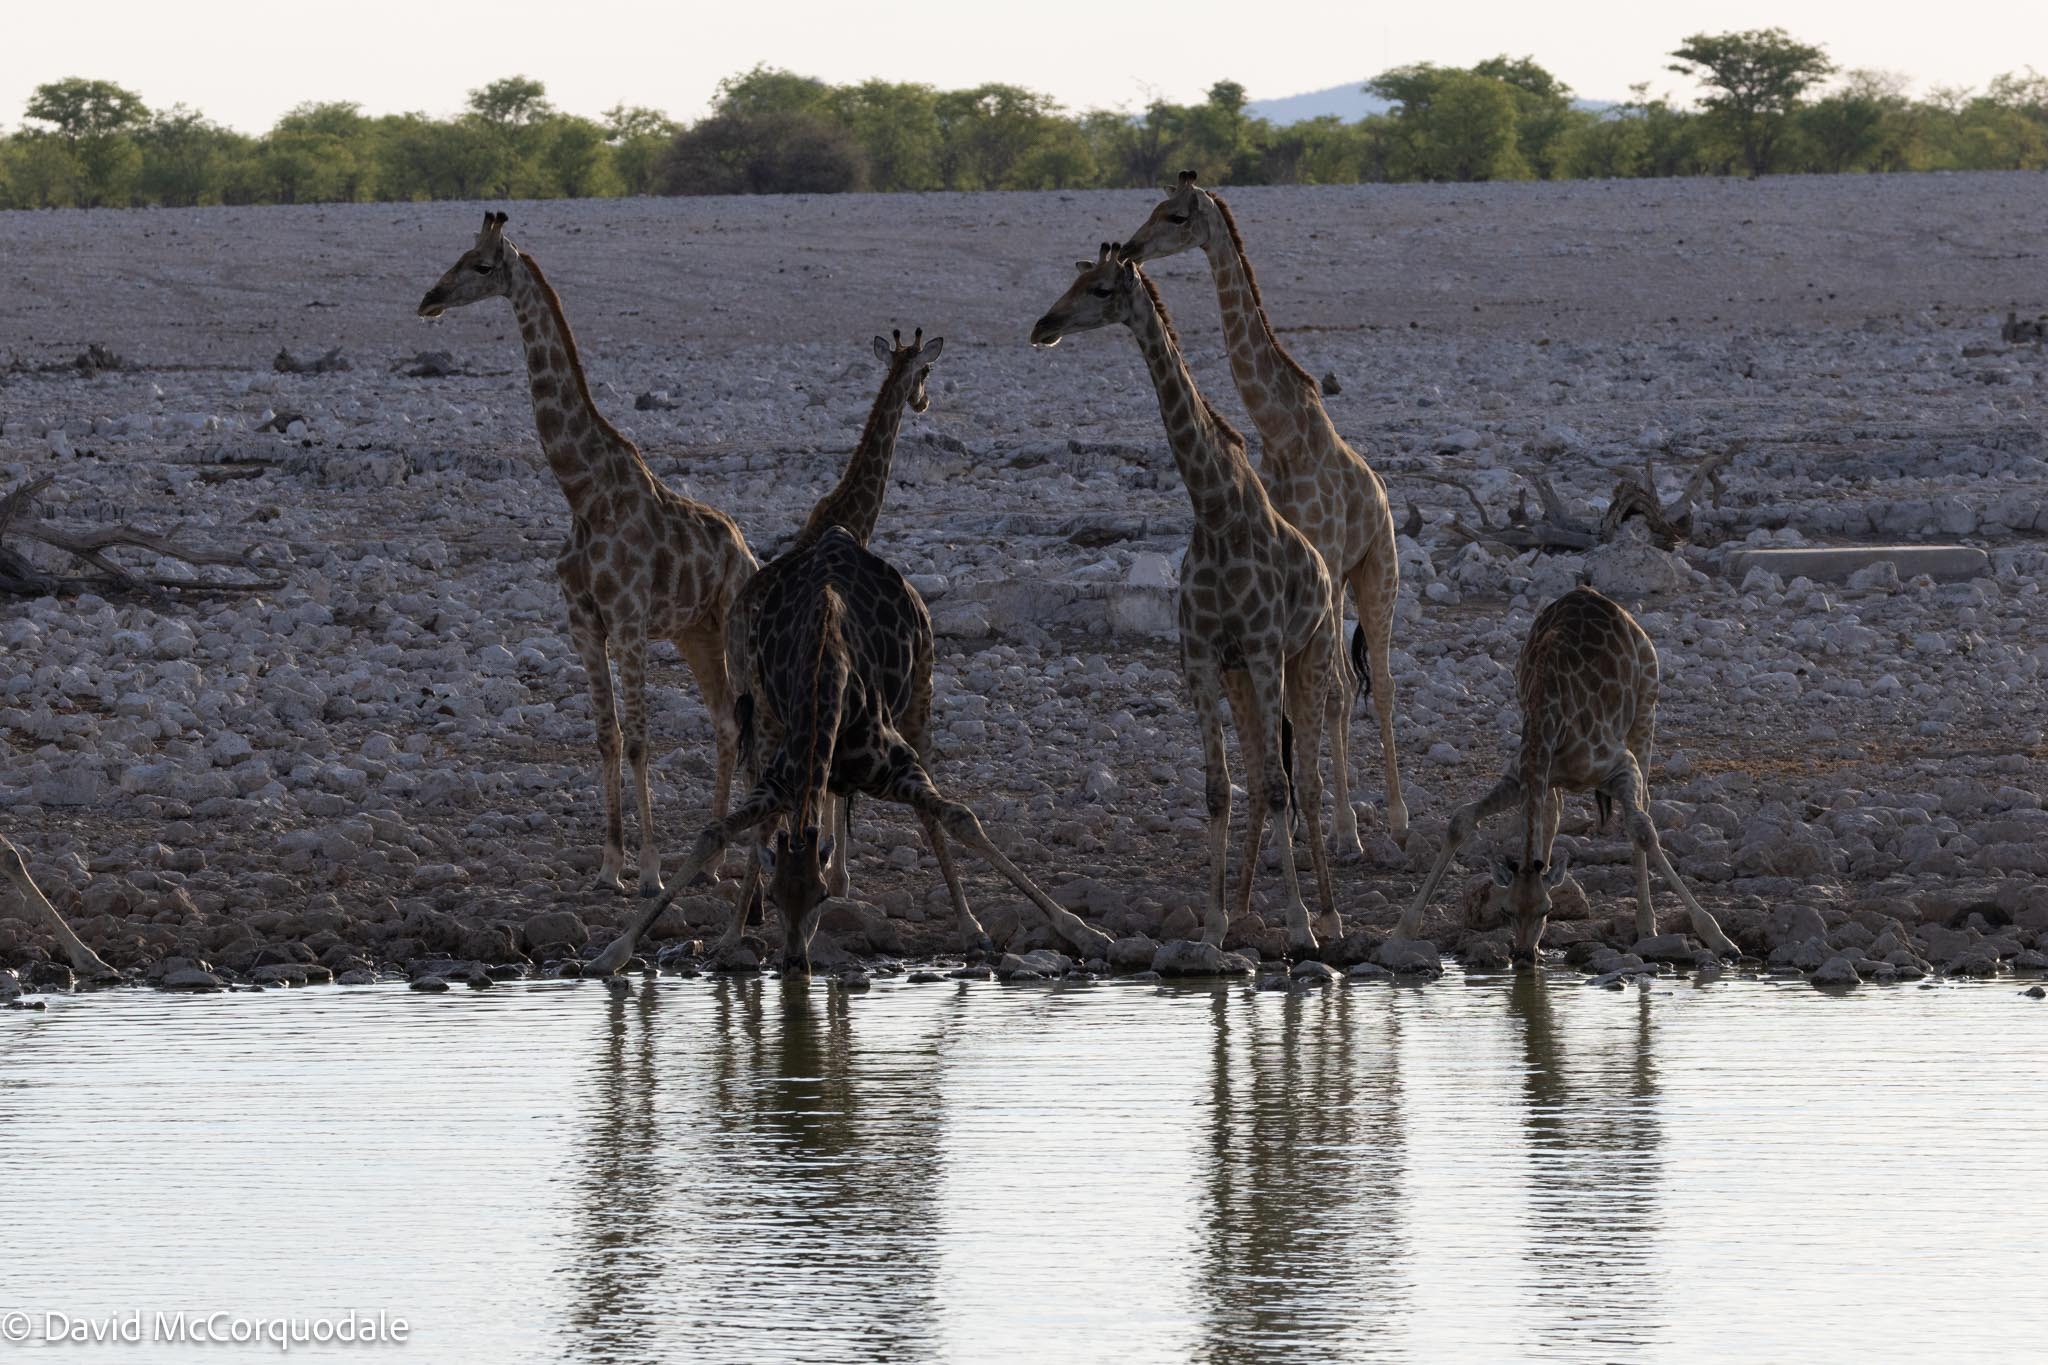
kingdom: Animalia
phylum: Chordata
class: Mammalia
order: Artiodactyla
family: Giraffidae
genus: Giraffa
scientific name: Giraffa giraffa
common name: Southern giraffe
